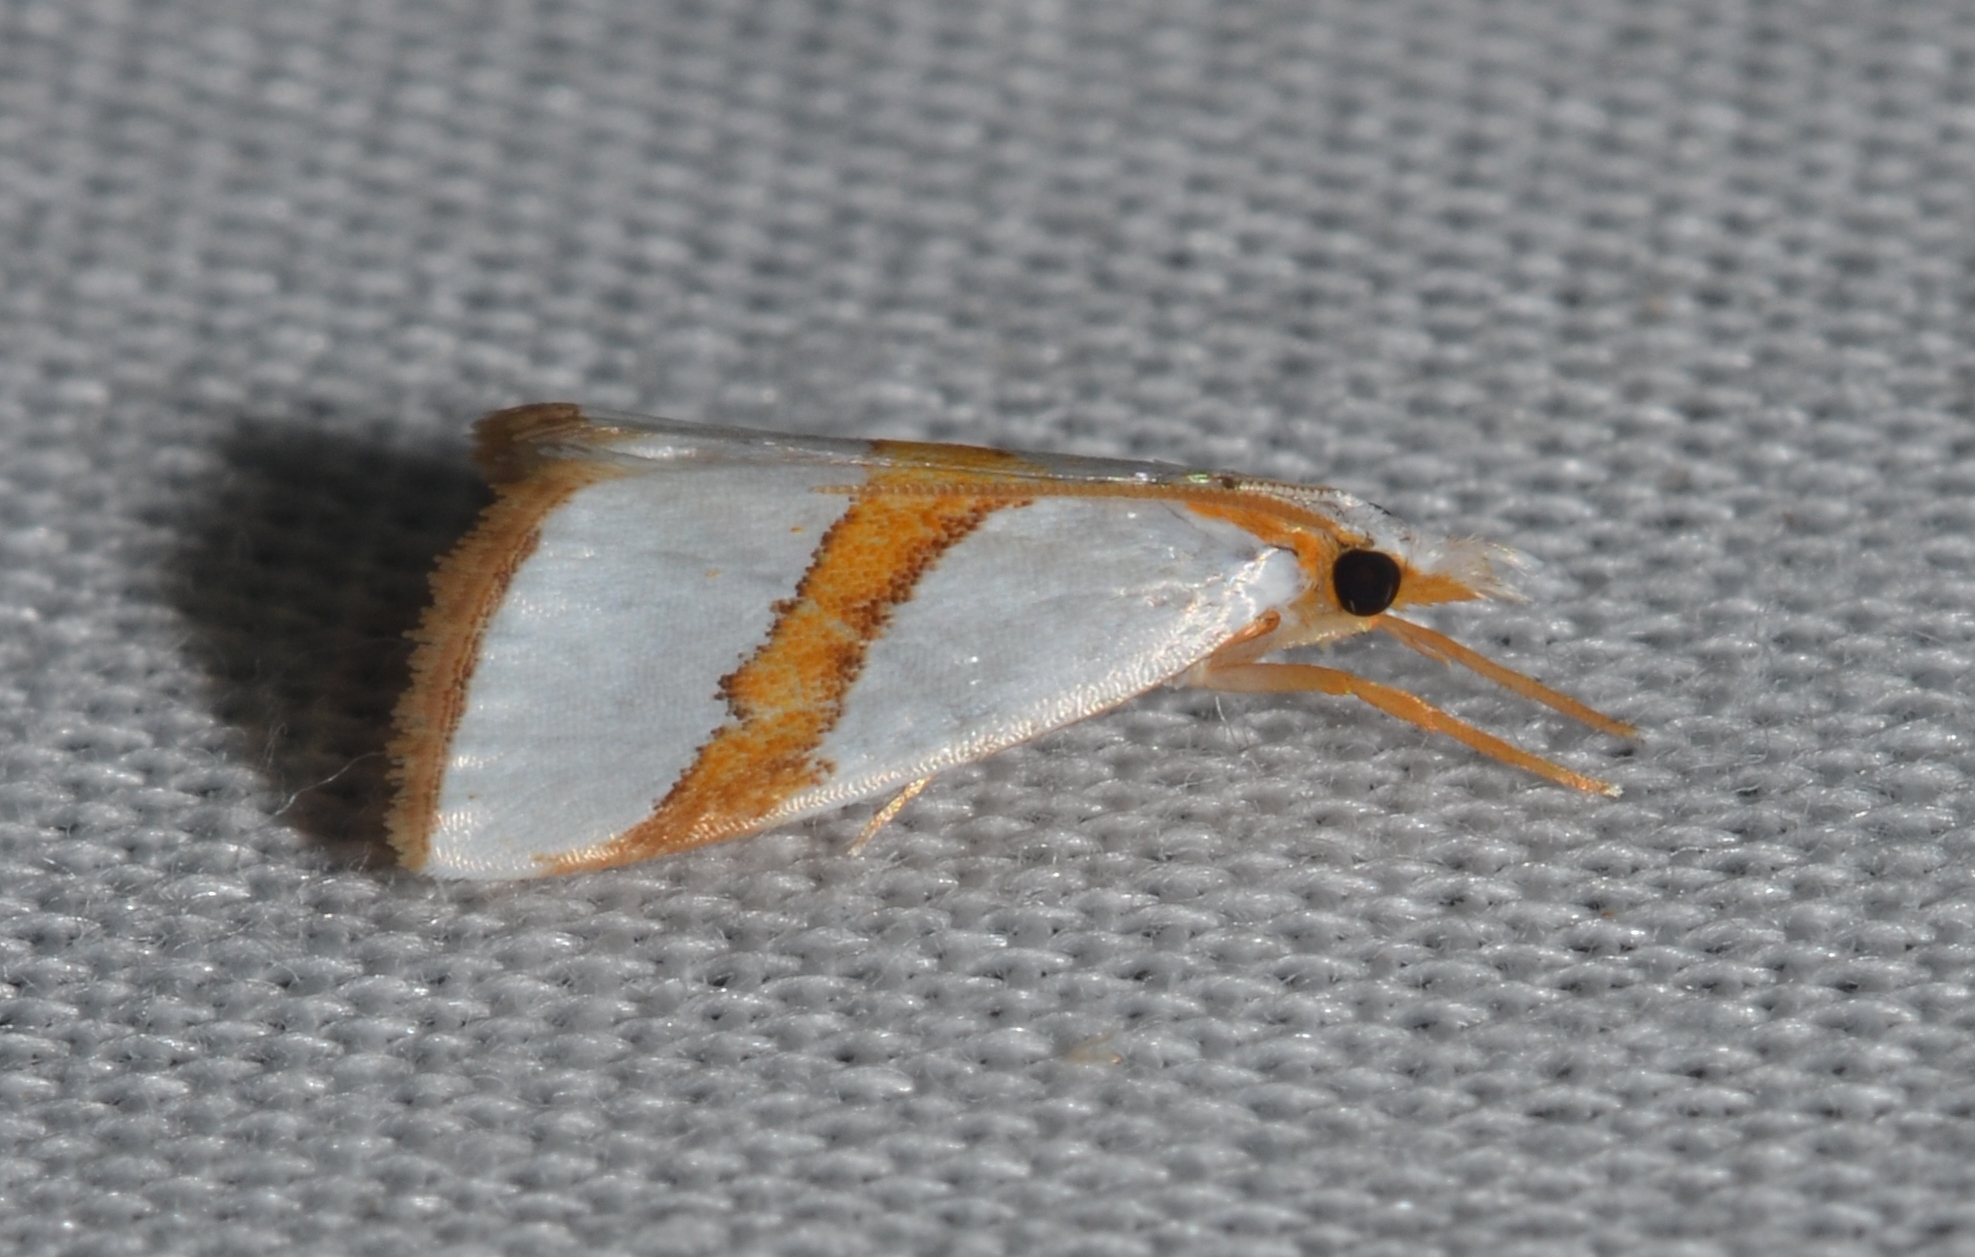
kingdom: Animalia
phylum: Arthropoda
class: Insecta
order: Lepidoptera
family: Crambidae
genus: Vaxi
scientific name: Vaxi critica
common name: Straight-lined vaxi moth
